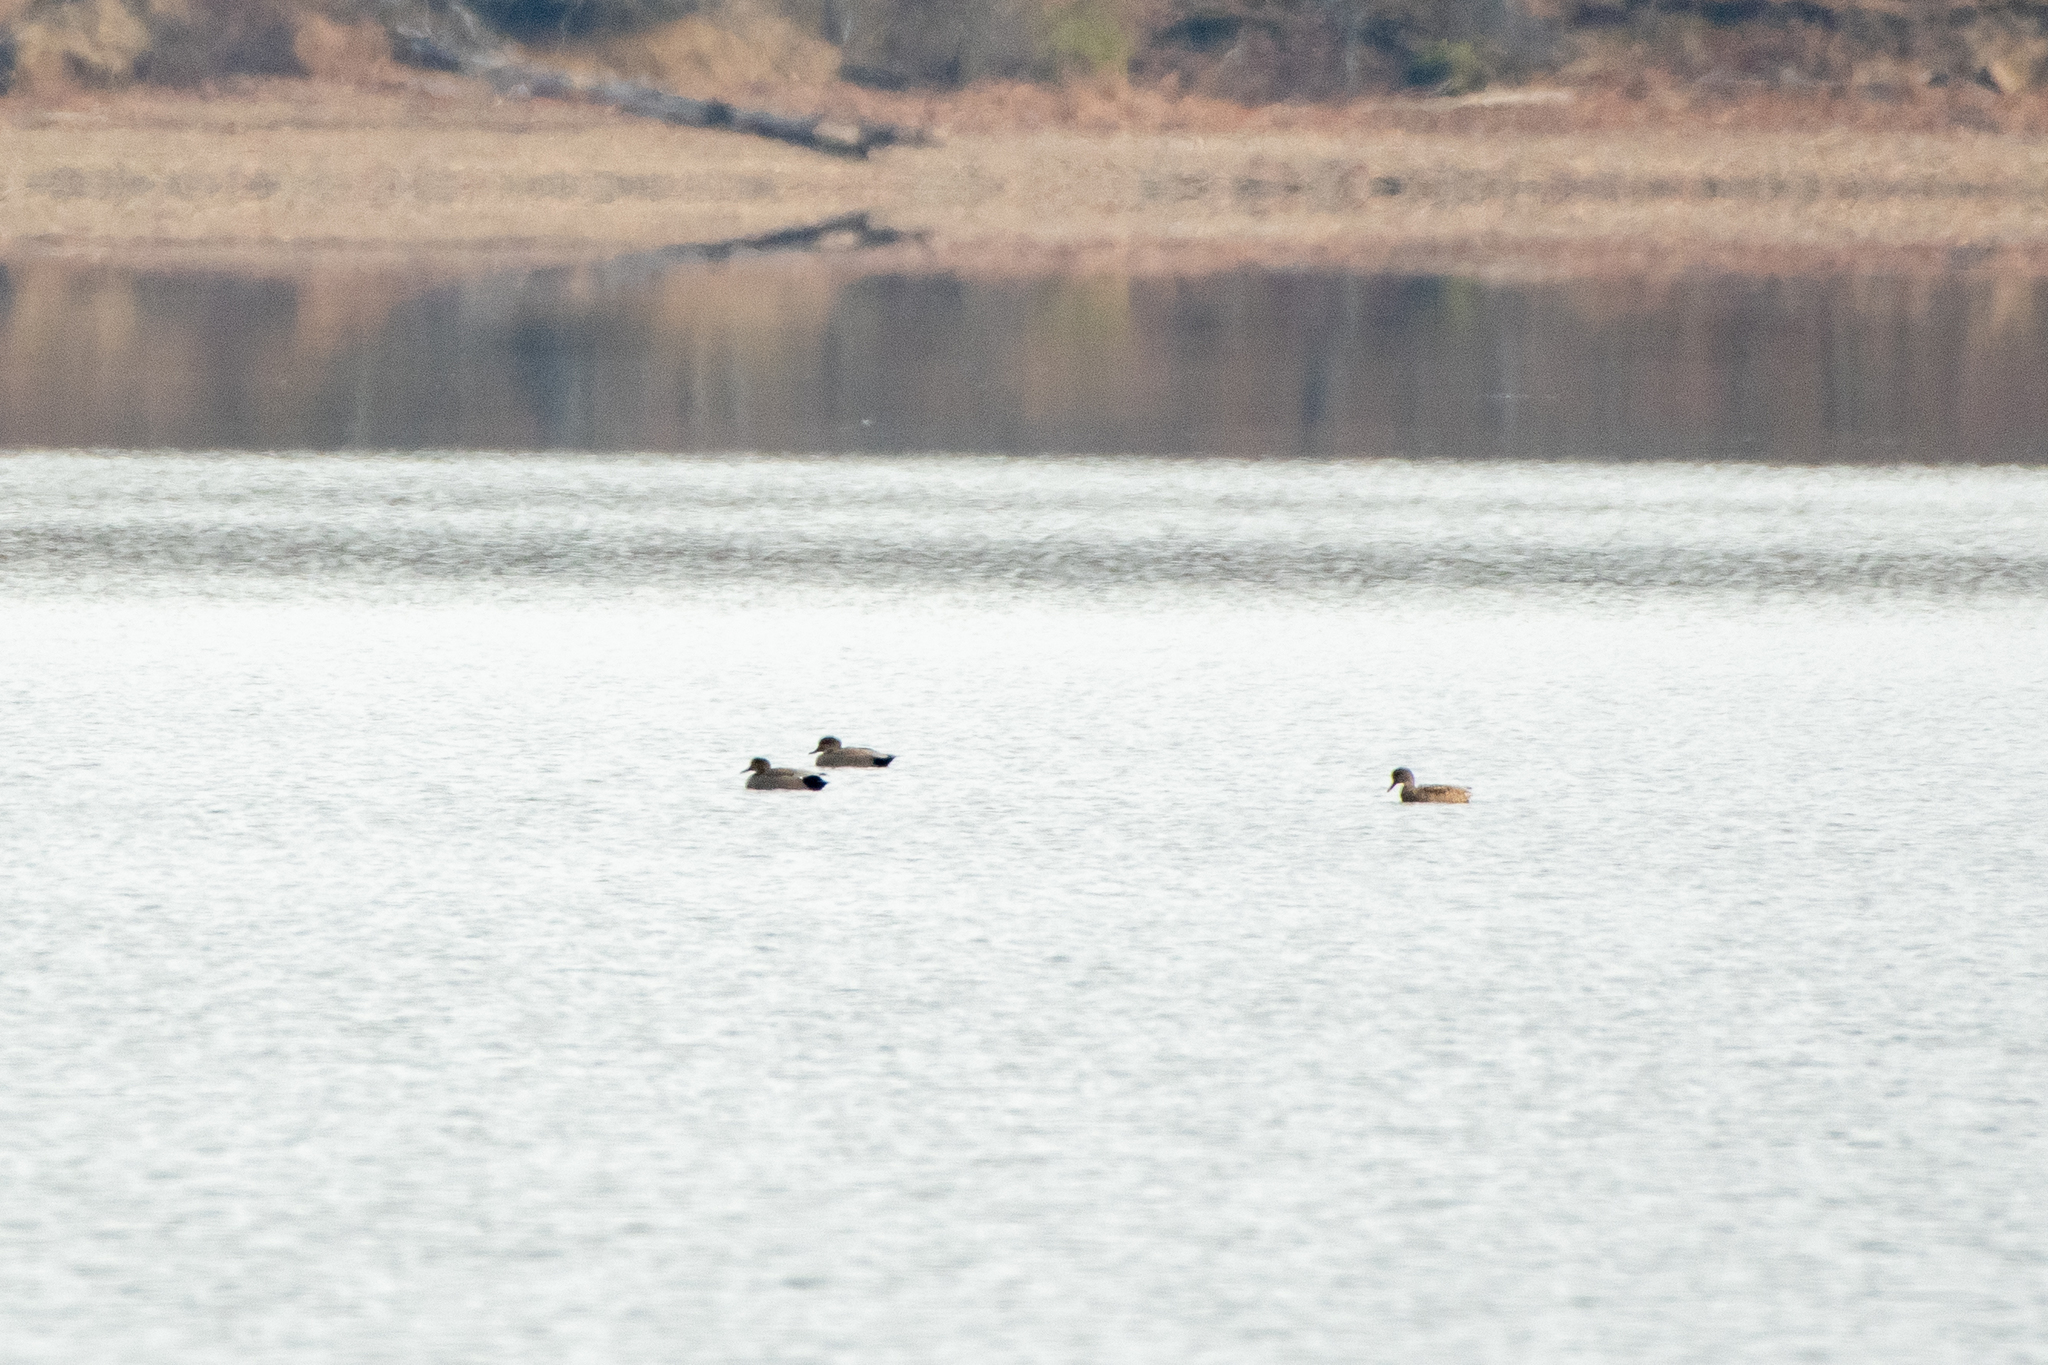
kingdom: Animalia
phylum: Chordata
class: Aves
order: Anseriformes
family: Anatidae
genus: Mareca
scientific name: Mareca strepera
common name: Gadwall
